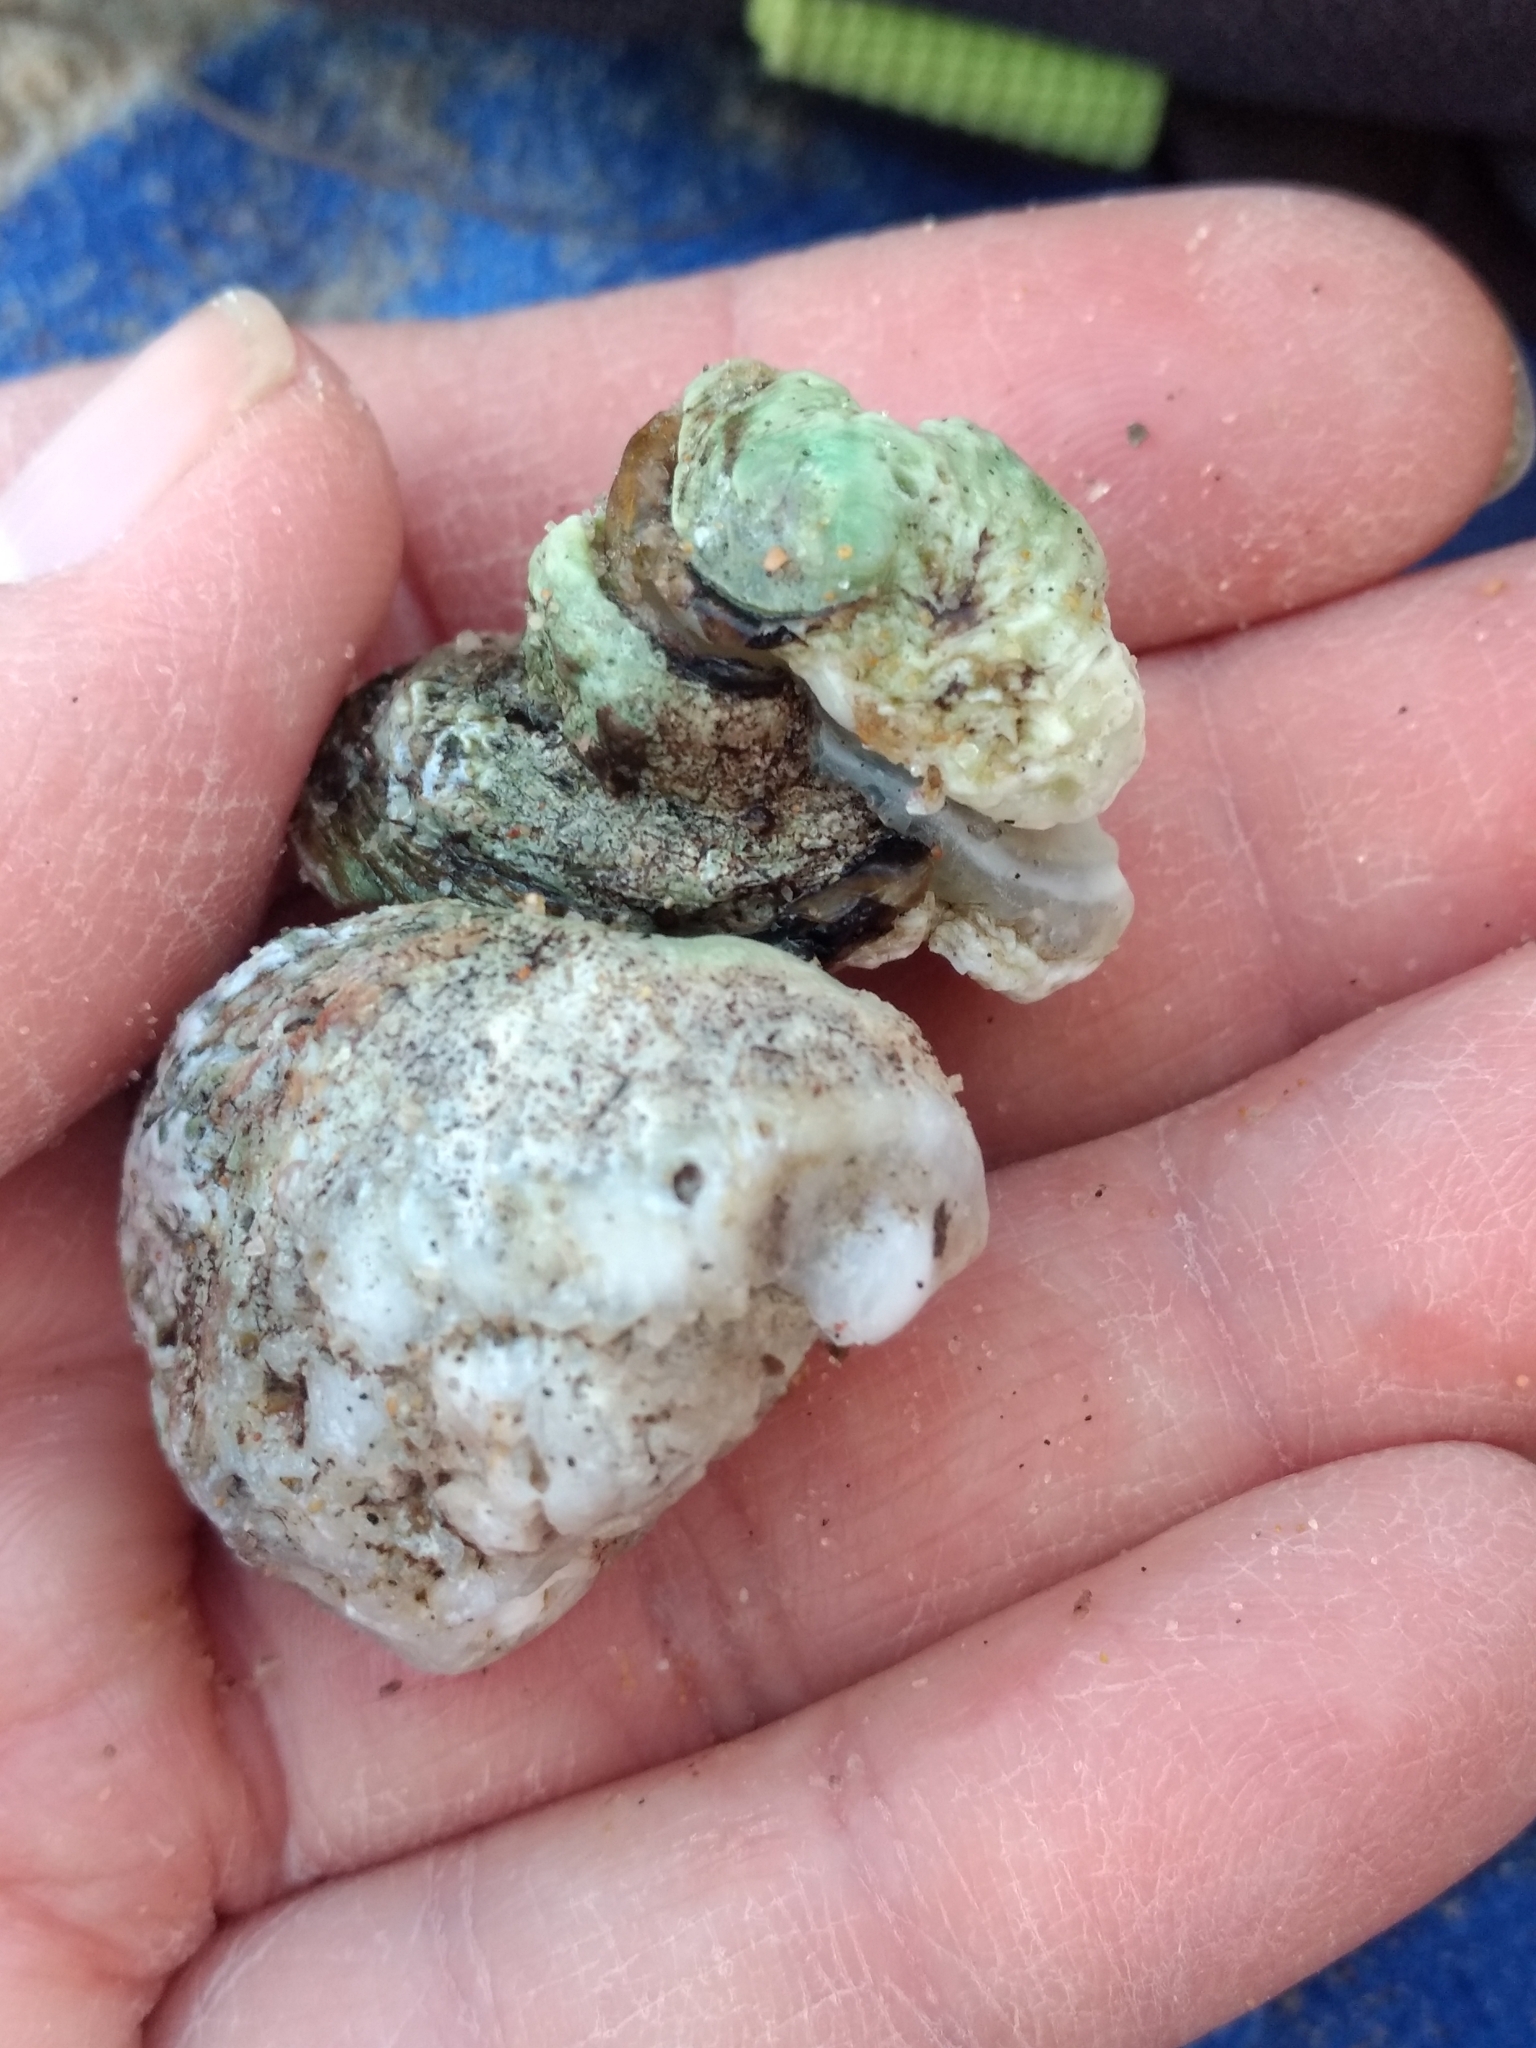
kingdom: Animalia
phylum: Mollusca
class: Bivalvia
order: Venerida
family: Chamidae
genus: Pseudochama
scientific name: Pseudochama exogyra
